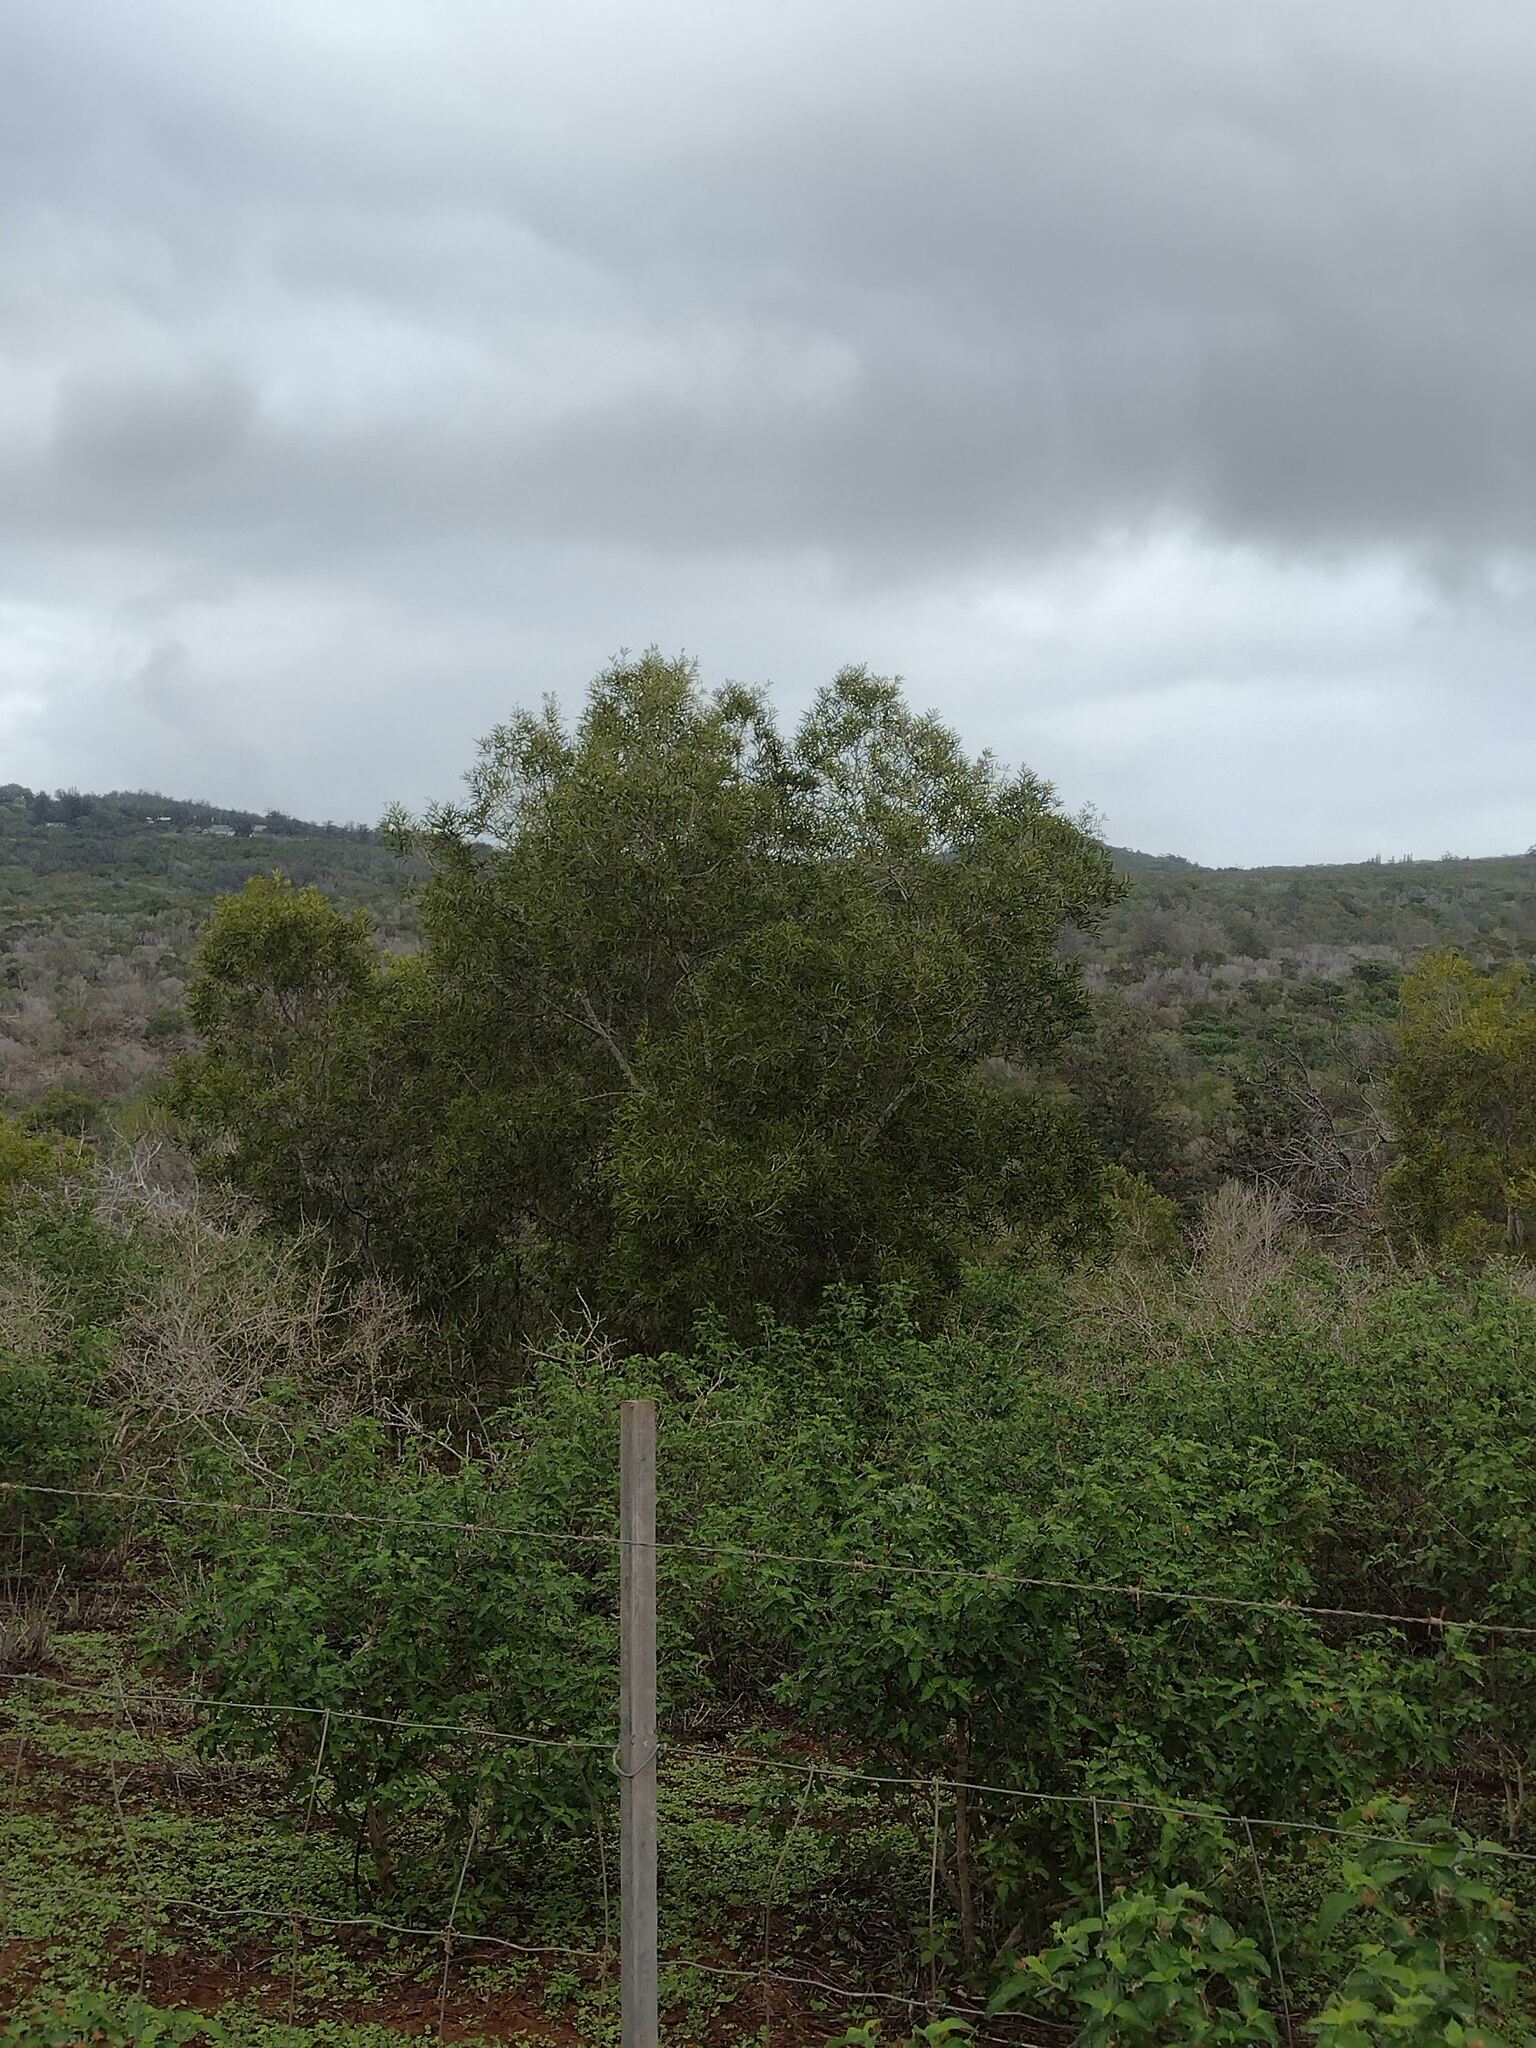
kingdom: Plantae
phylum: Tracheophyta
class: Magnoliopsida
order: Fabales
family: Fabaceae
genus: Acacia
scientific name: Acacia confusa
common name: Formosan koa
